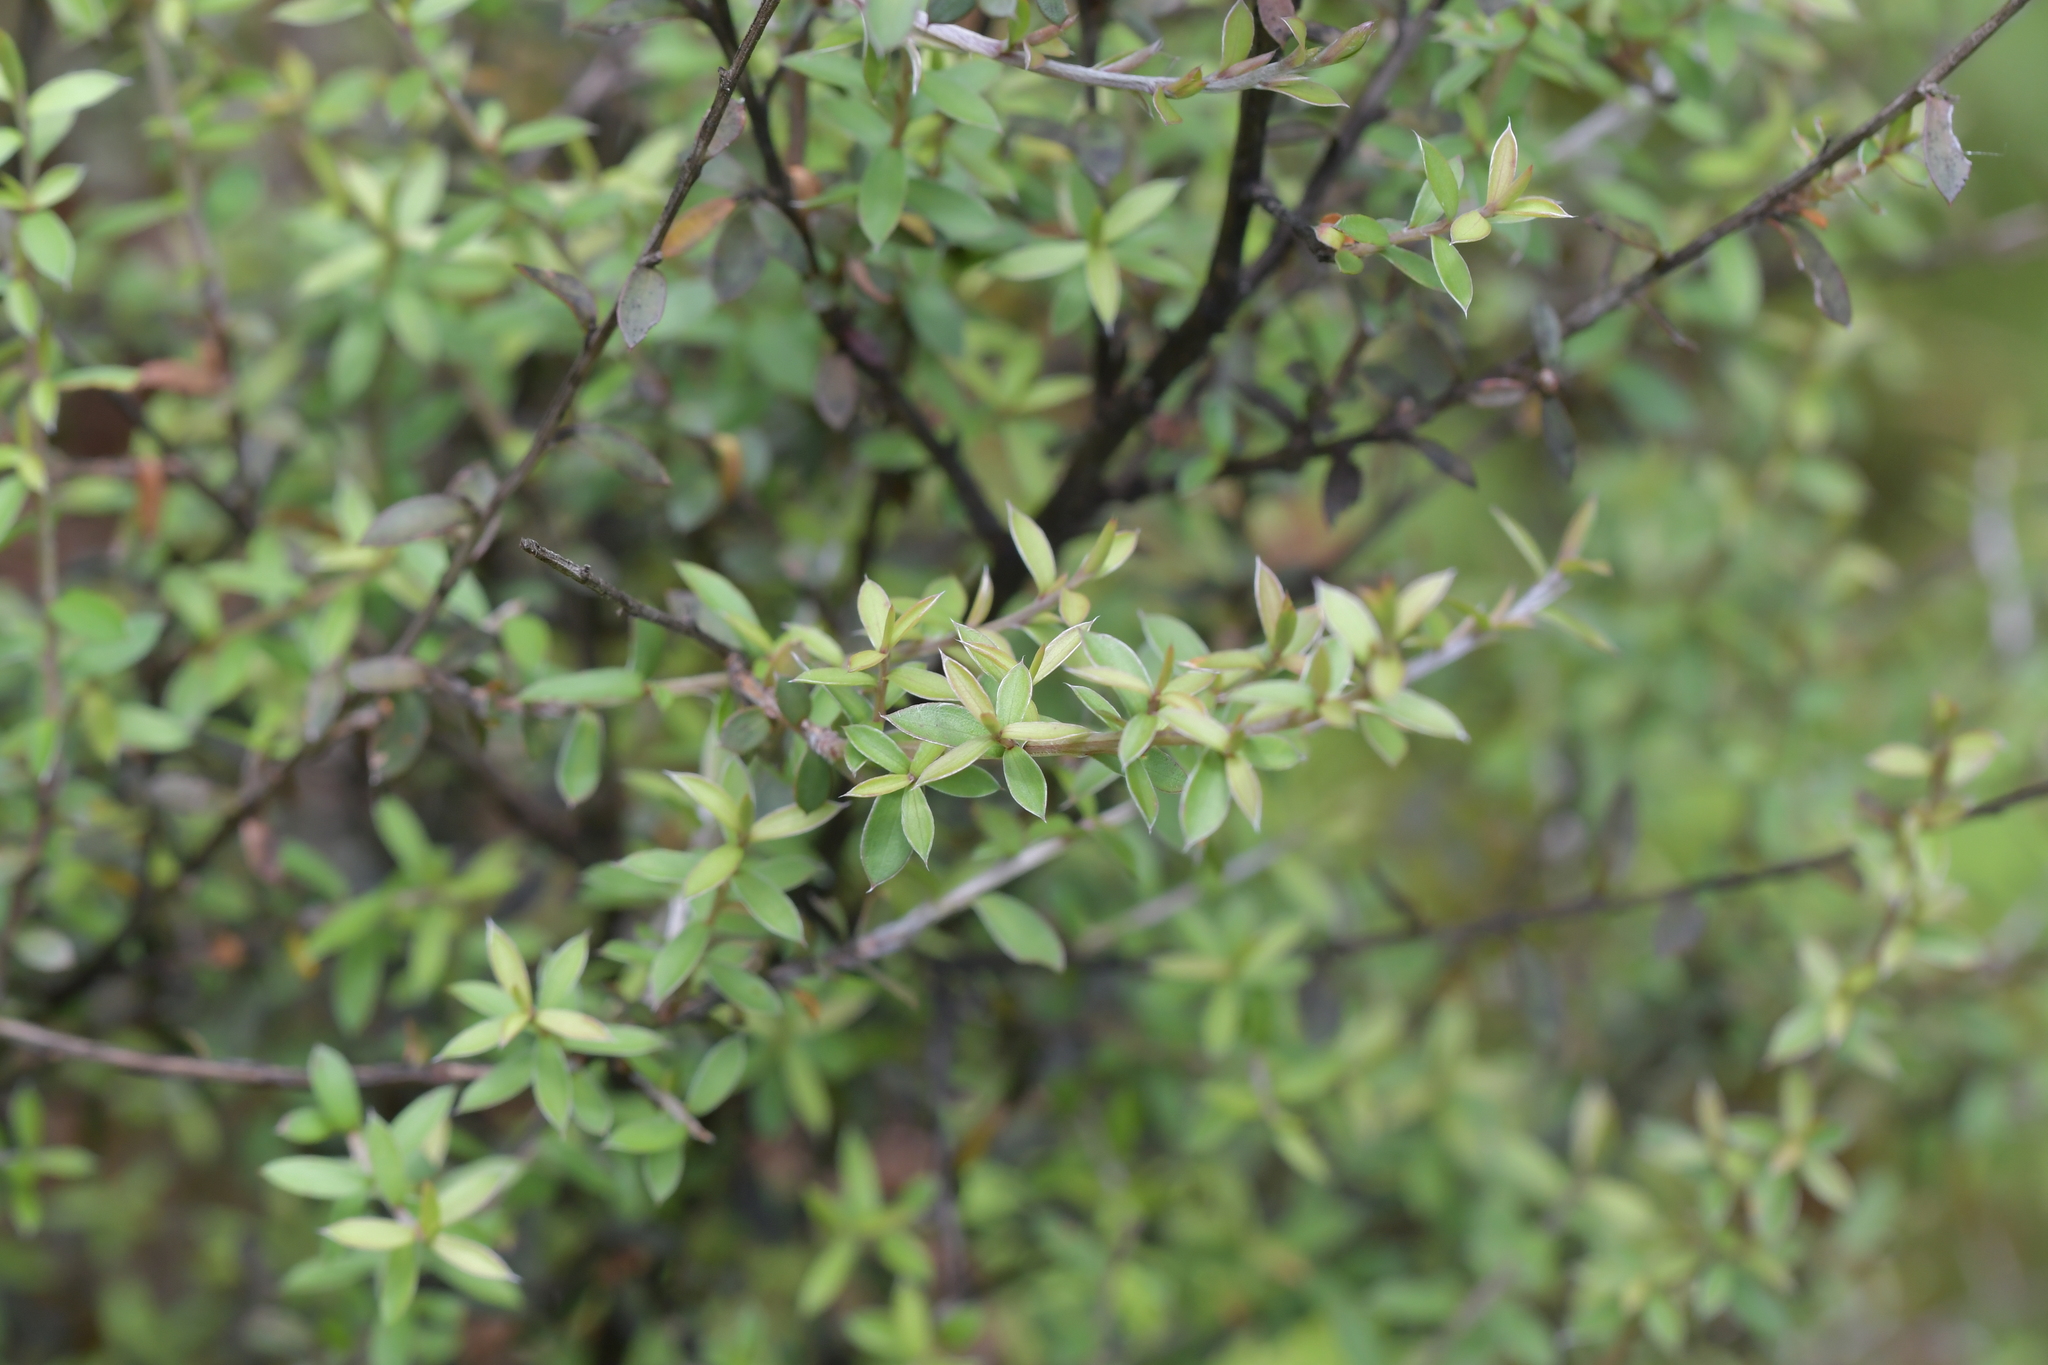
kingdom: Plantae
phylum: Tracheophyta
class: Magnoliopsida
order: Myrtales
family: Myrtaceae
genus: Leptospermum
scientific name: Leptospermum scoparium
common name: Broom tea-tree
